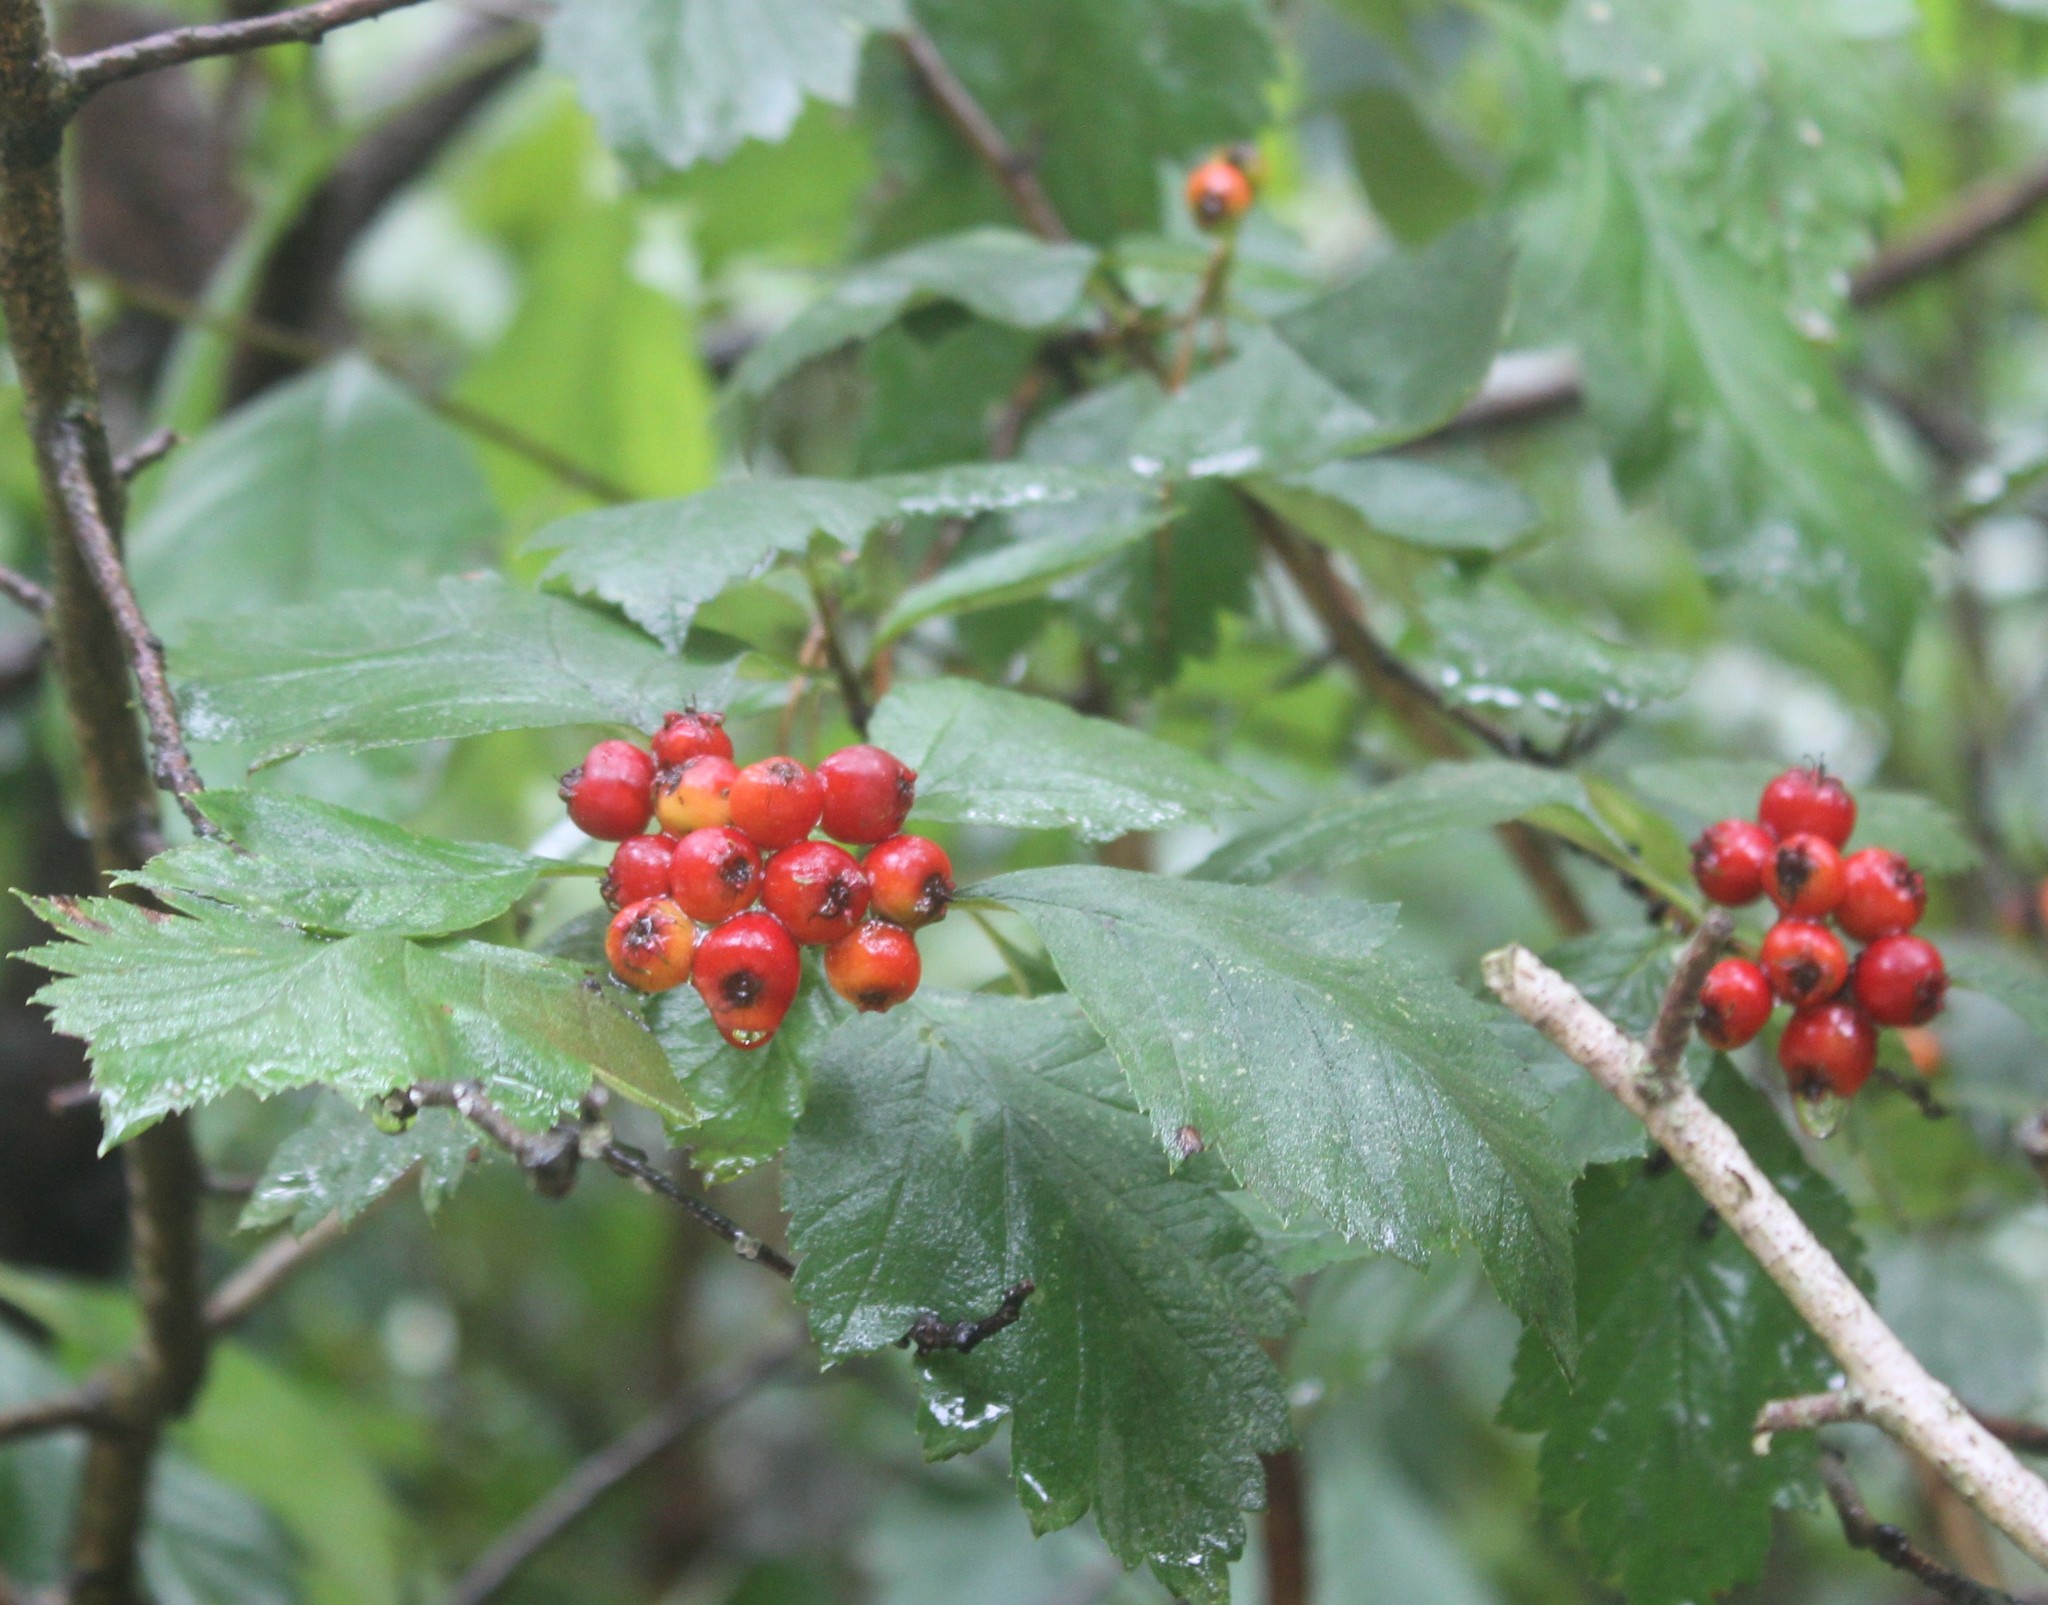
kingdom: Plantae
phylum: Tracheophyta
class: Magnoliopsida
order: Rosales
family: Rosaceae
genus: Crataegus
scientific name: Crataegus sanguinea
